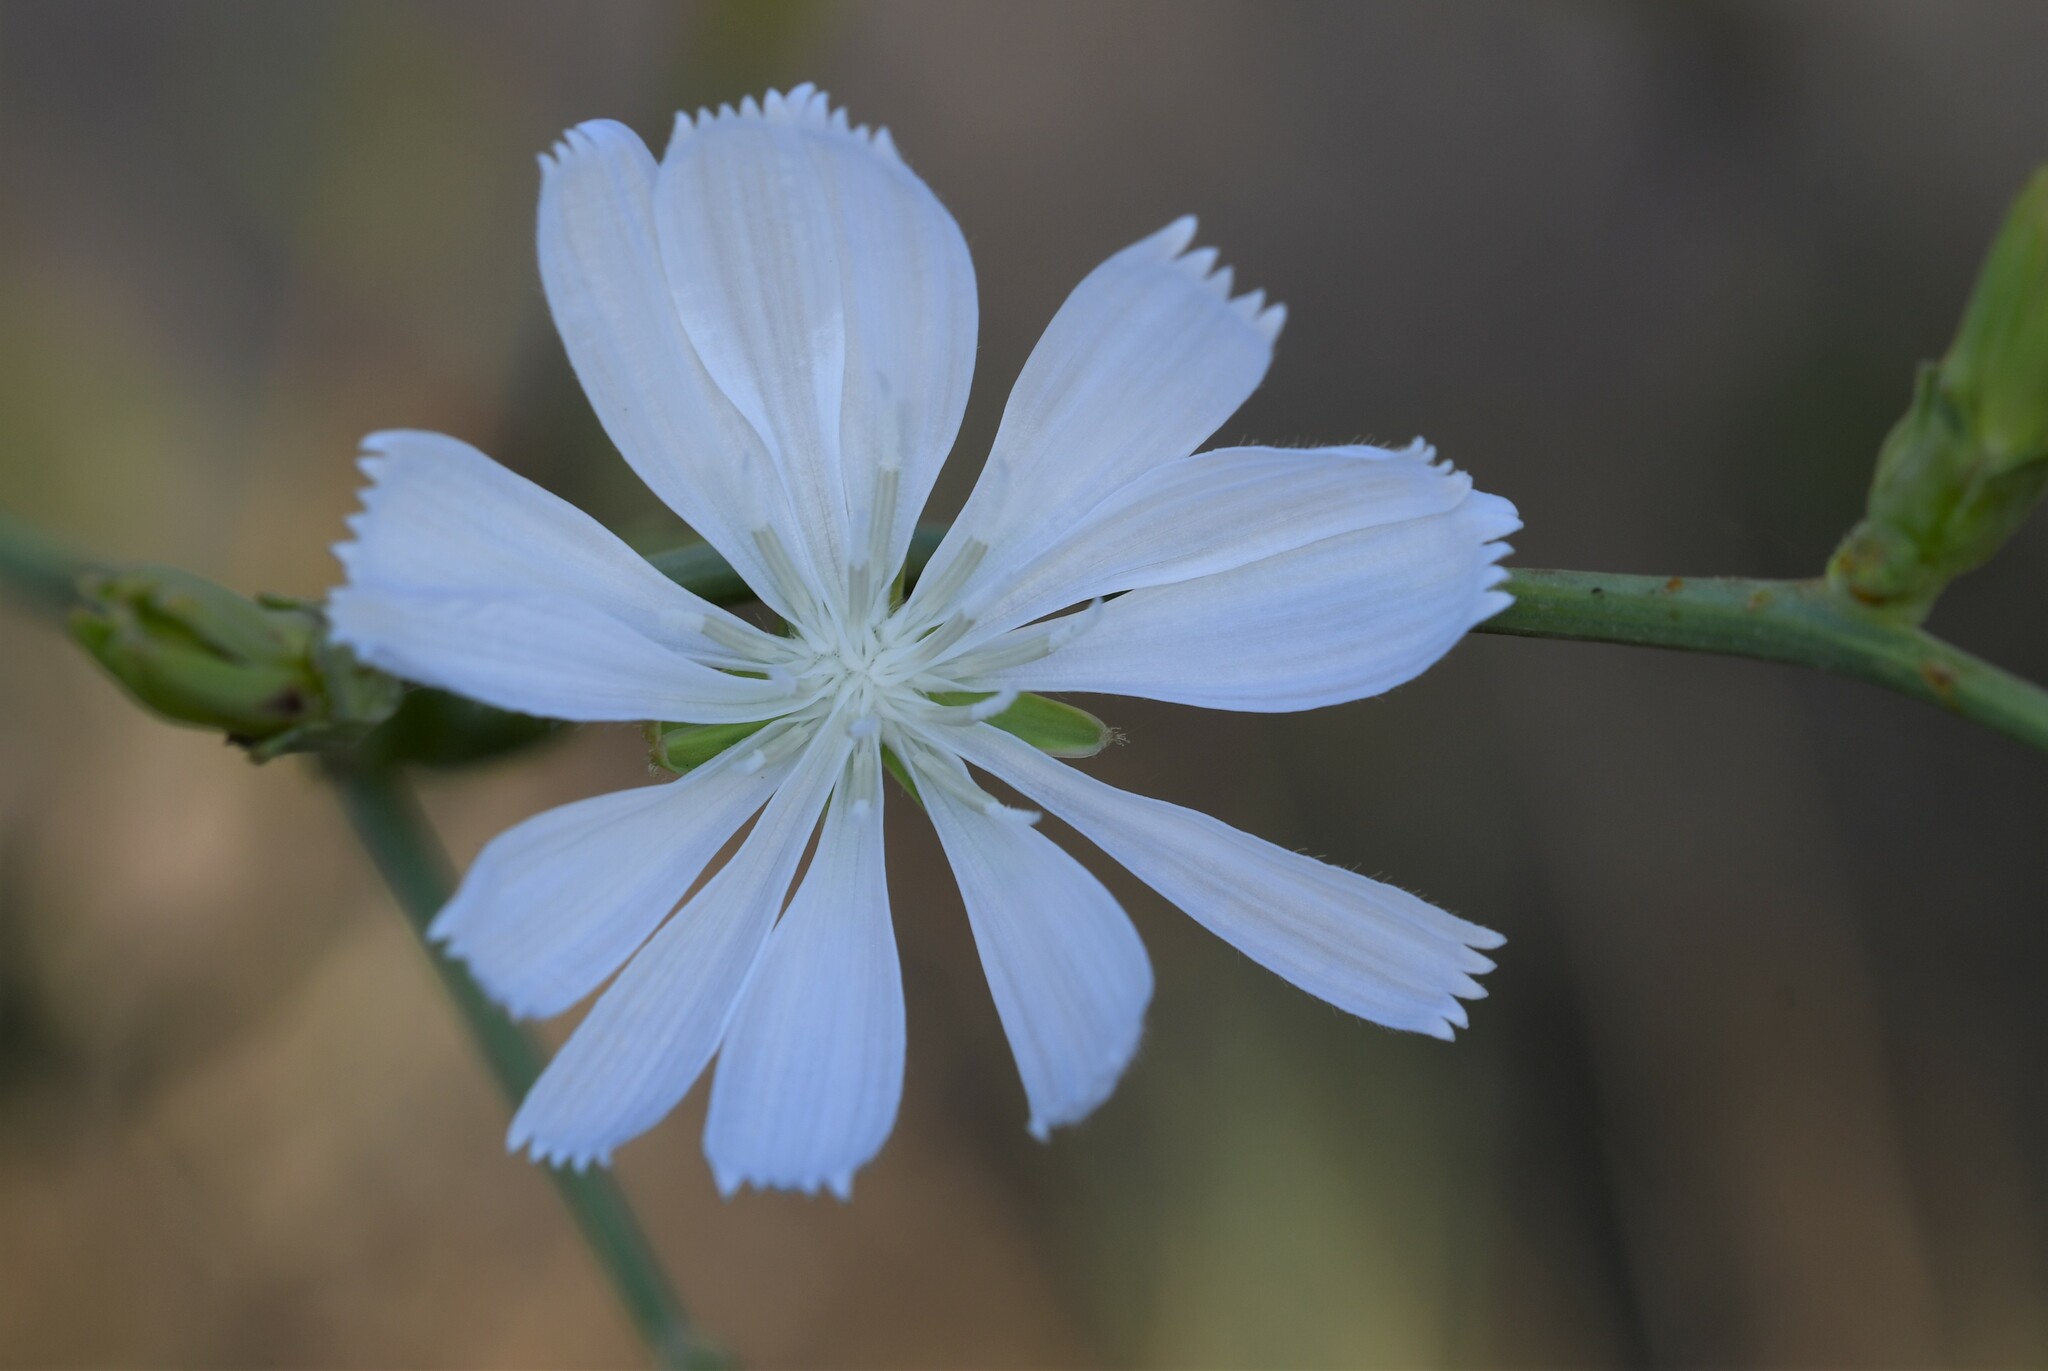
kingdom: Plantae
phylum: Tracheophyta
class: Magnoliopsida
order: Asterales
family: Asteraceae
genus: Cichorium
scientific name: Cichorium intybus
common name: Chicory
